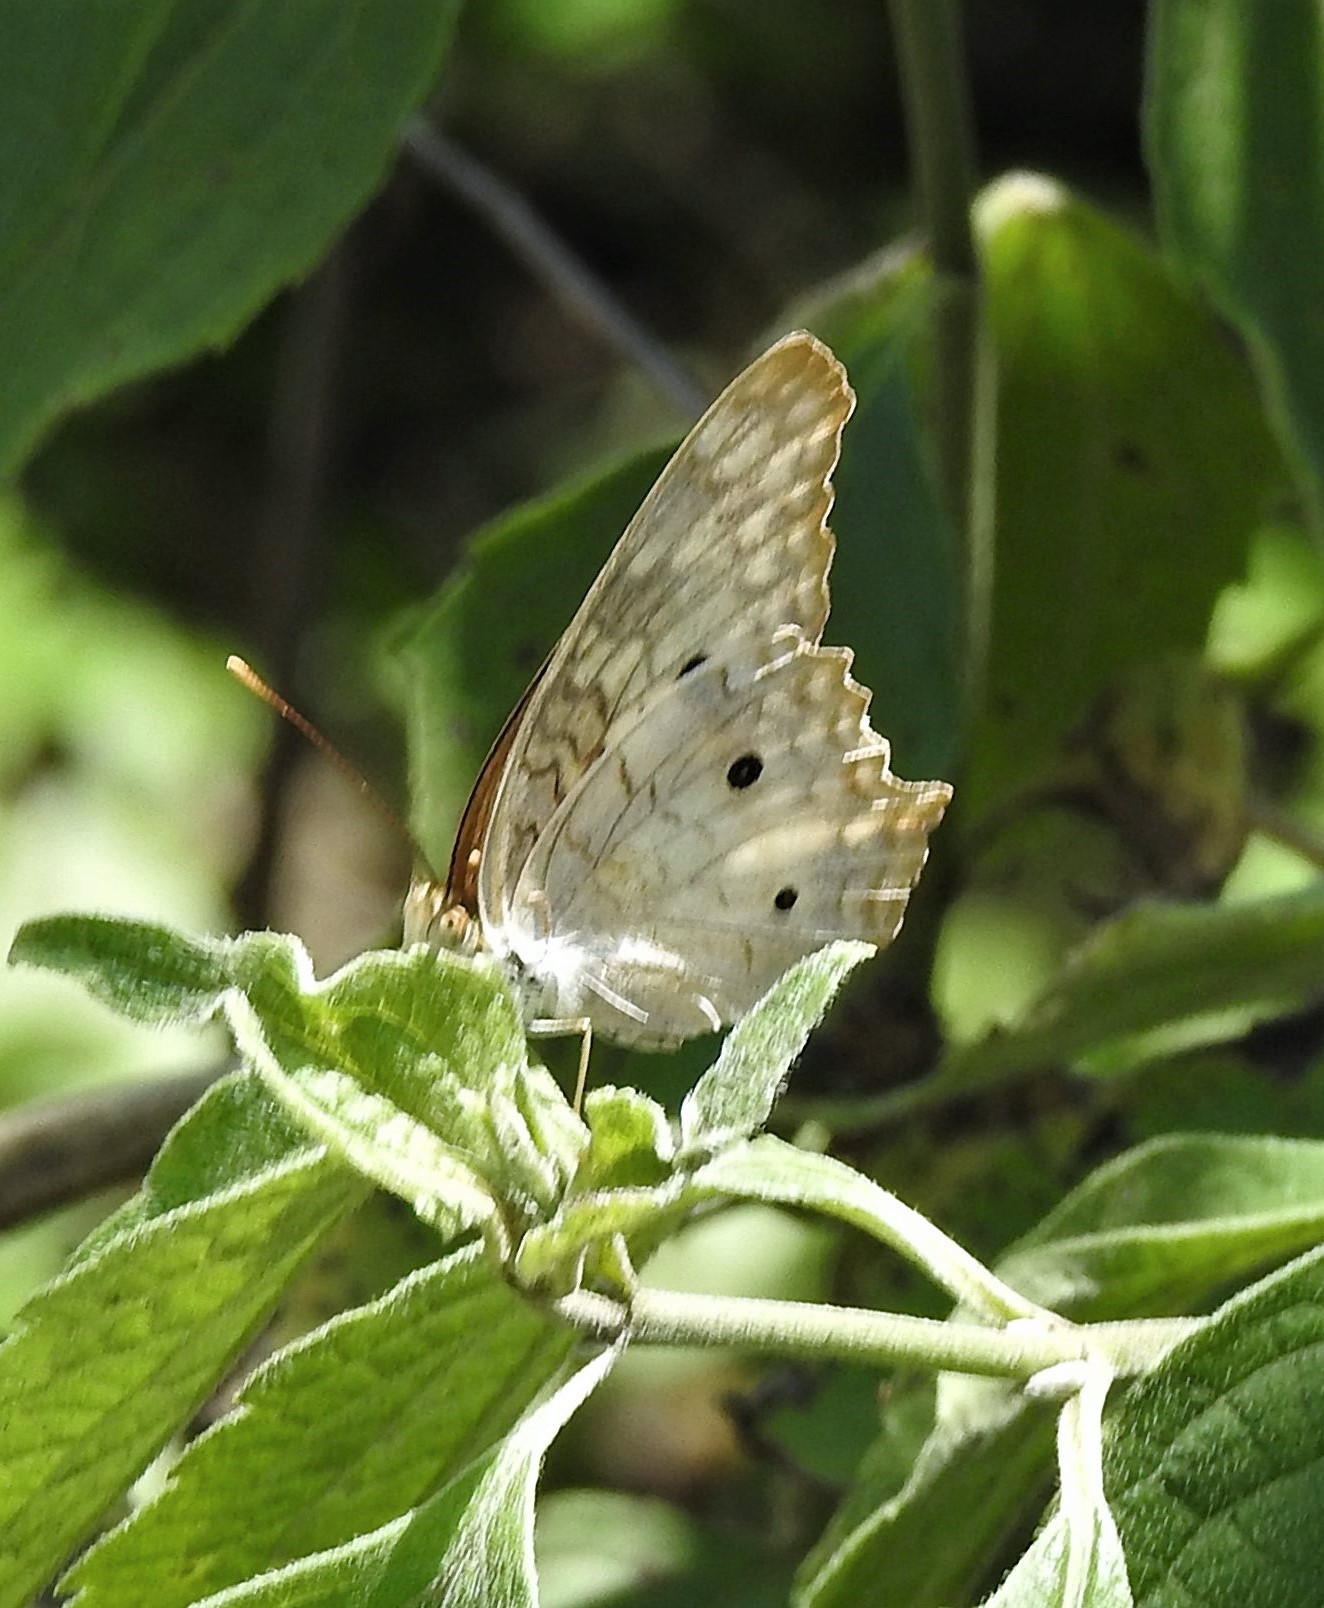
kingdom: Animalia
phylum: Arthropoda
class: Insecta
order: Lepidoptera
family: Nymphalidae
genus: Anartia
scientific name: Anartia jatrophae
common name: White peacock
